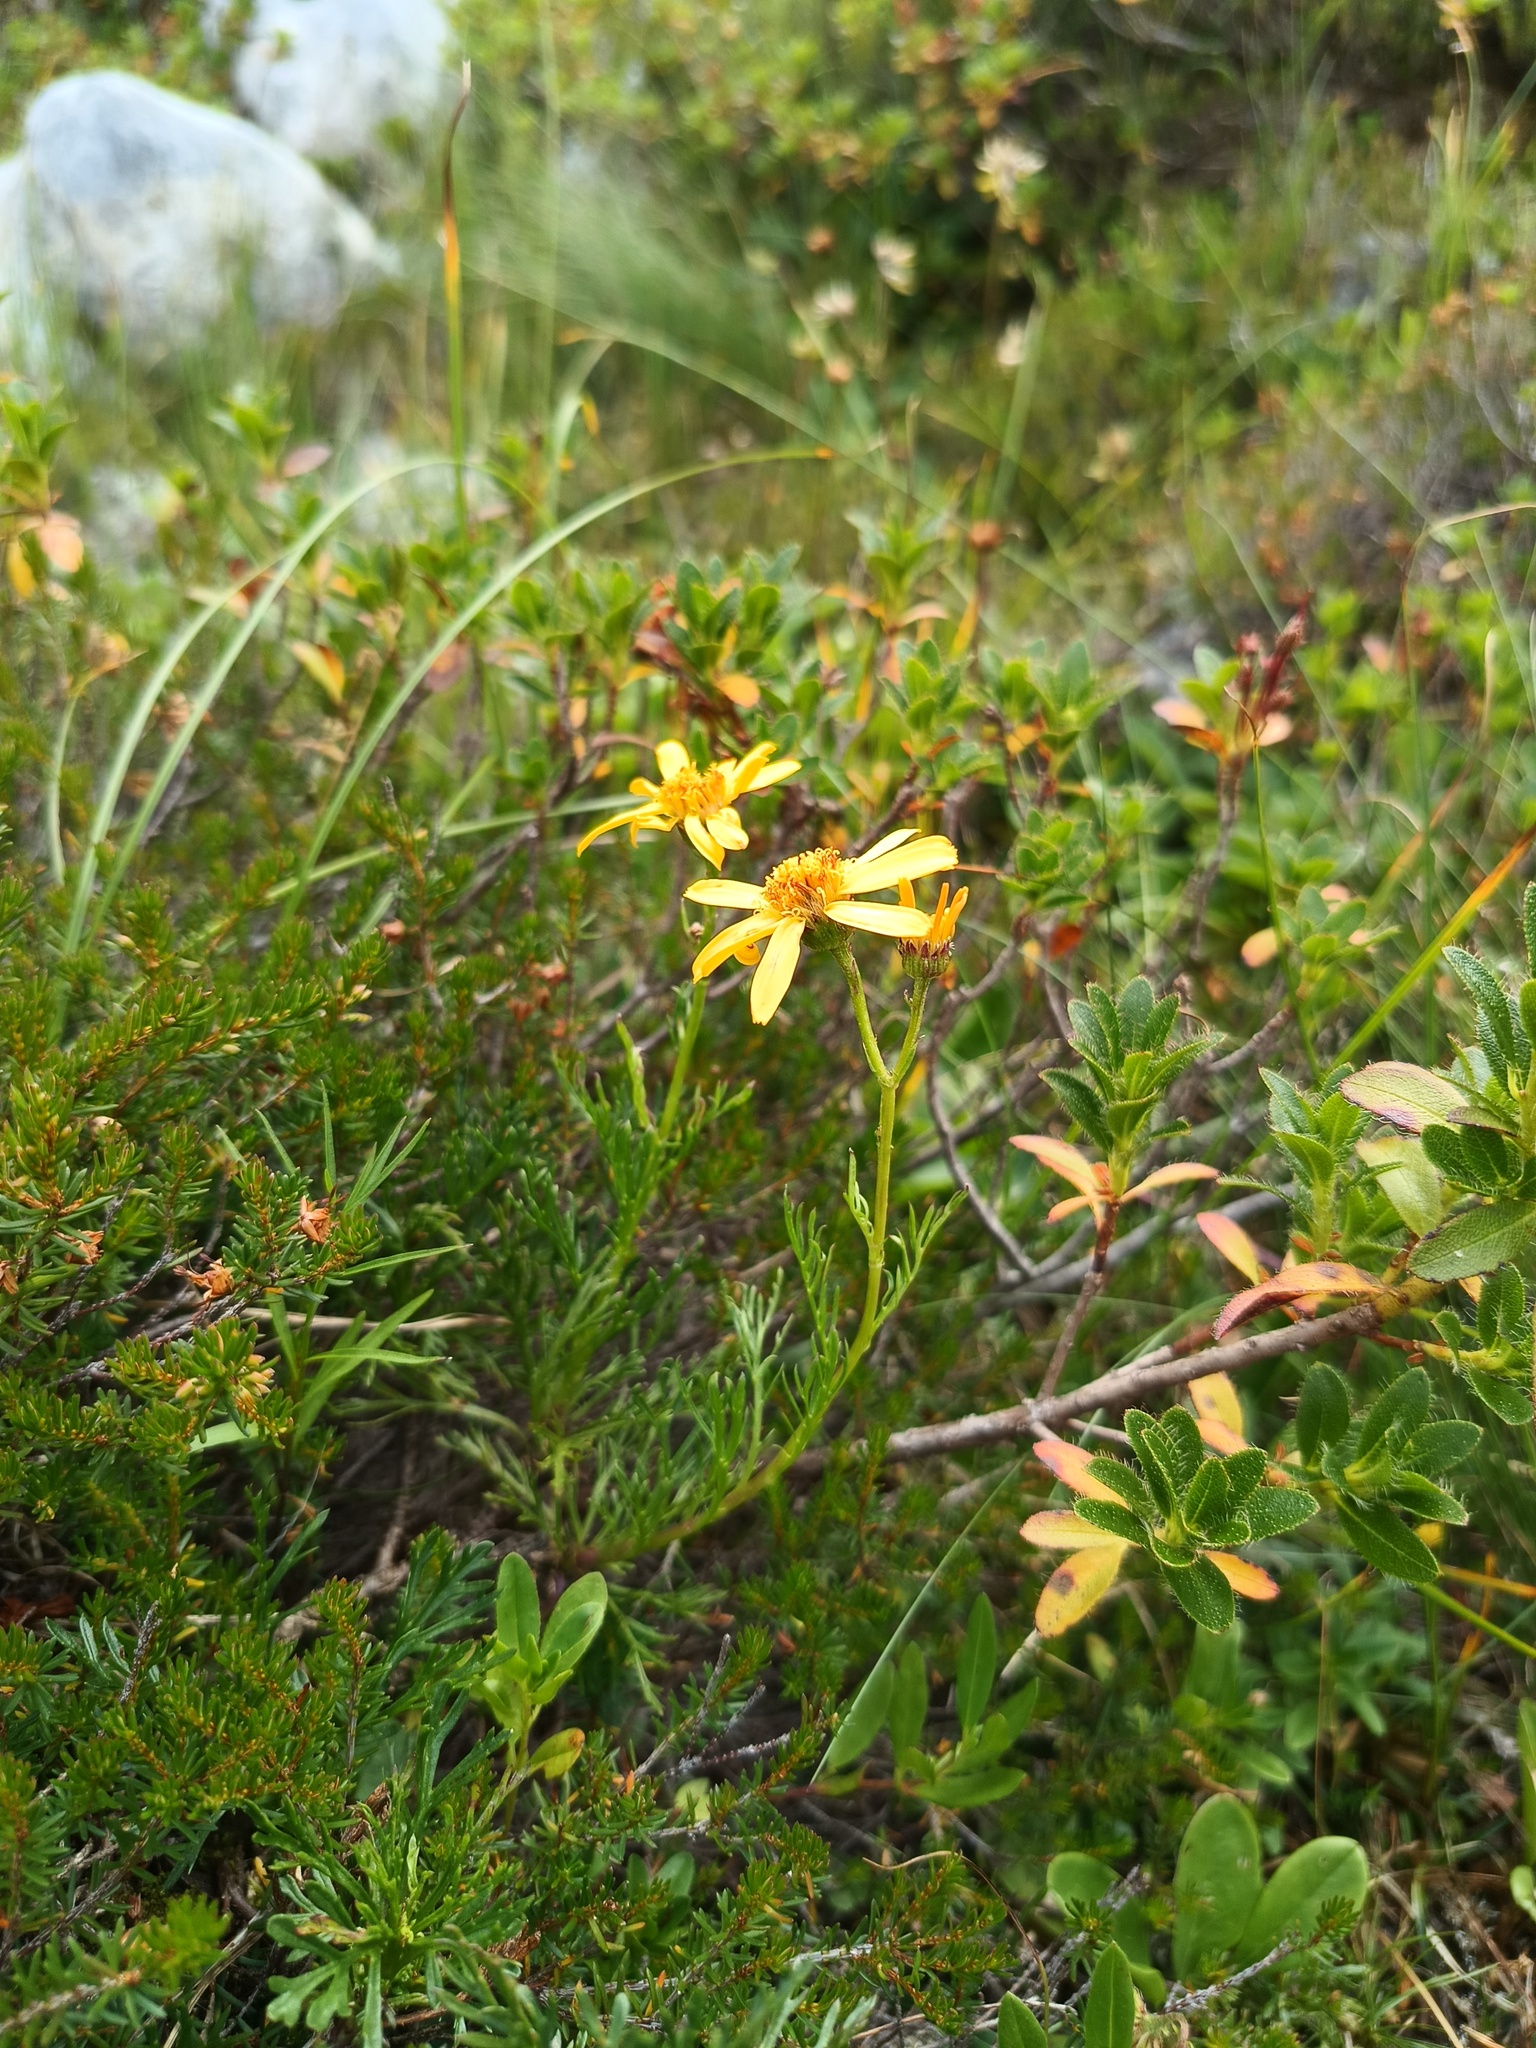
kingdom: Plantae
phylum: Tracheophyta
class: Magnoliopsida
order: Asterales
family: Asteraceae
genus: Jacobaea
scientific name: Jacobaea abrotanifolia
